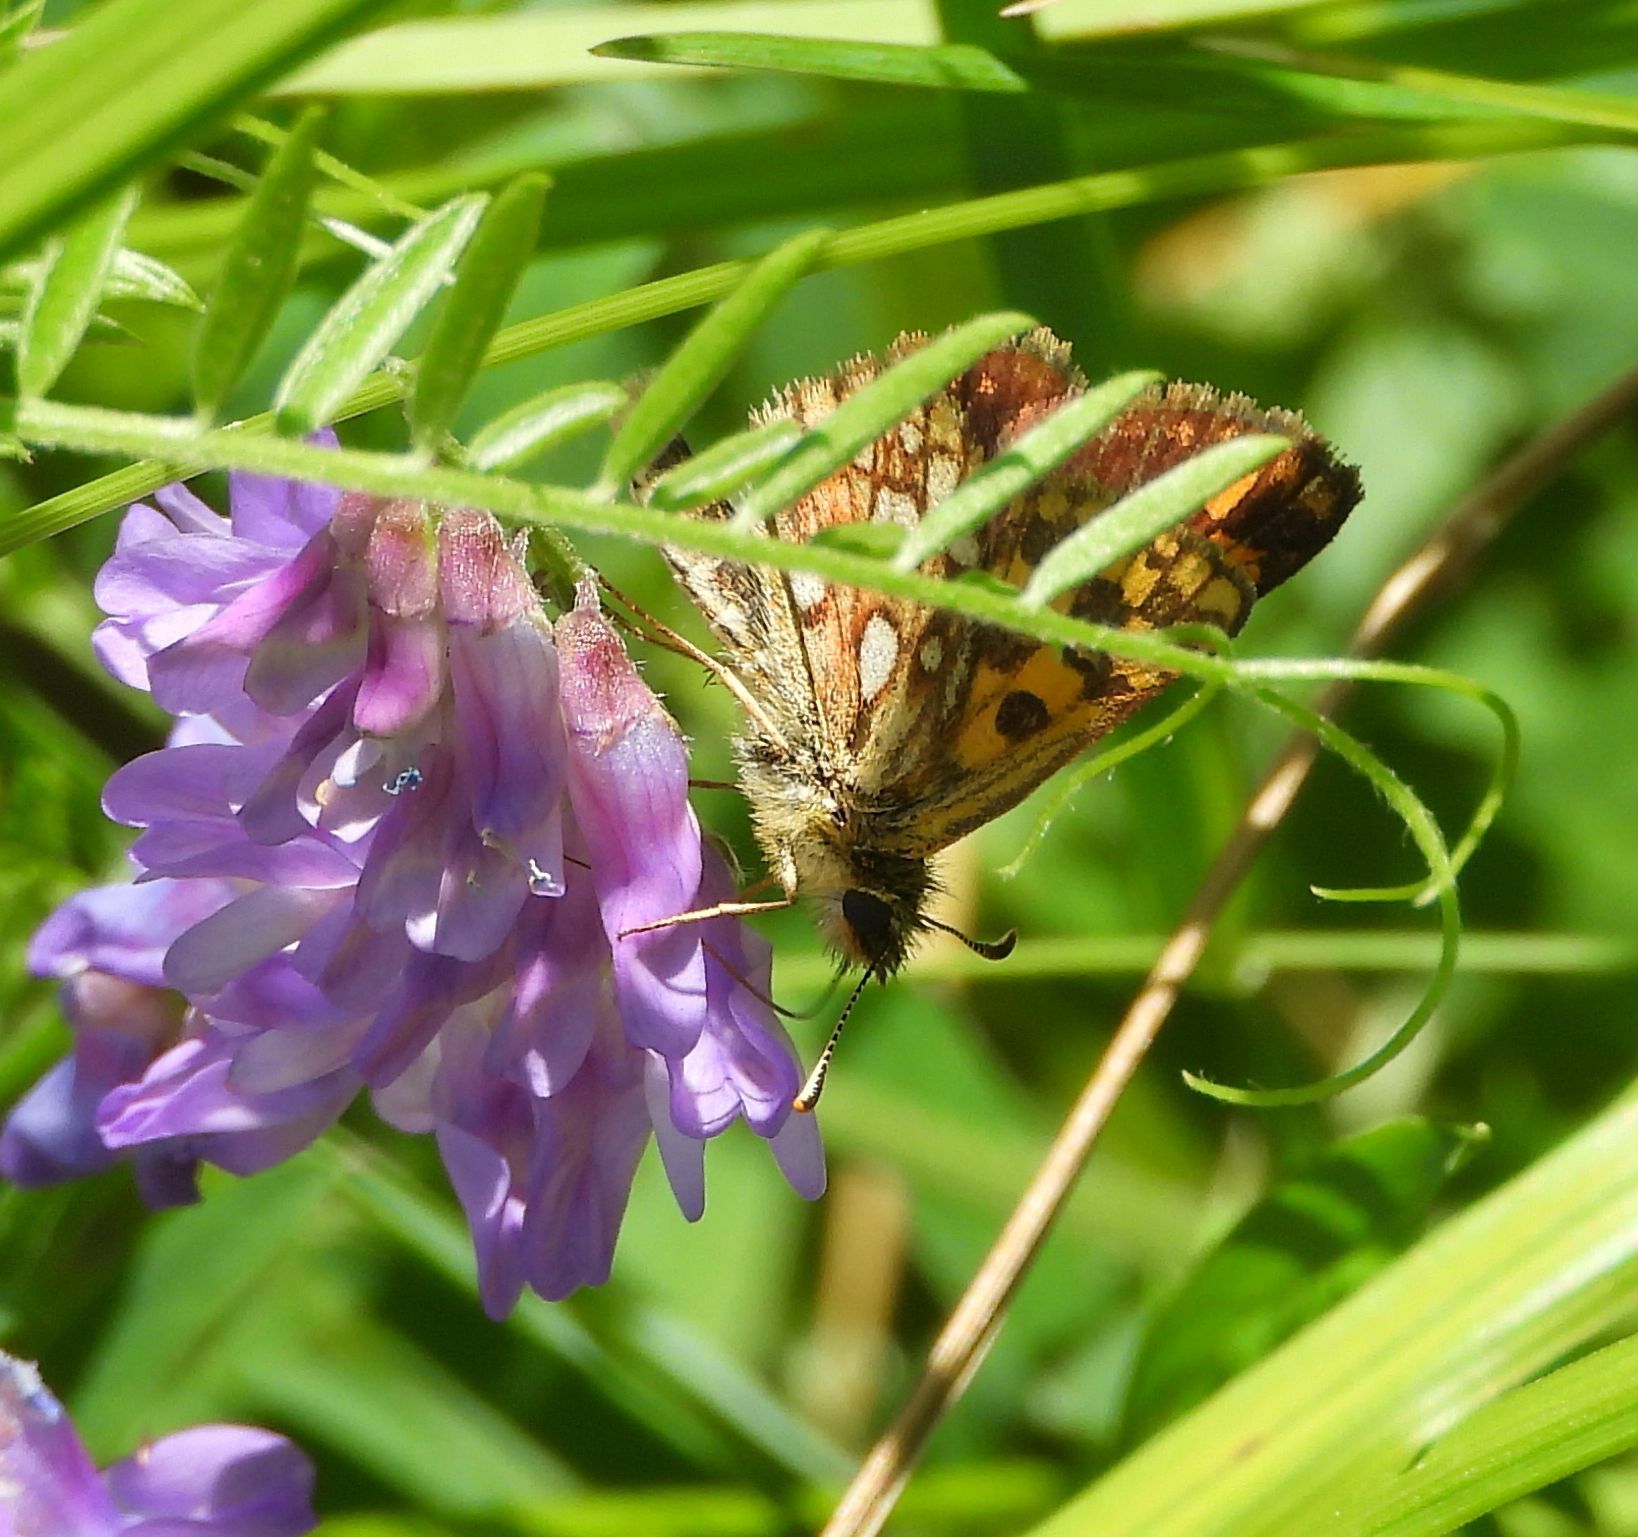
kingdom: Animalia
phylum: Arthropoda
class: Insecta
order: Lepidoptera
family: Hesperiidae
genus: Carterocephalus
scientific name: Carterocephalus mandan
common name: Arctic skipperling
